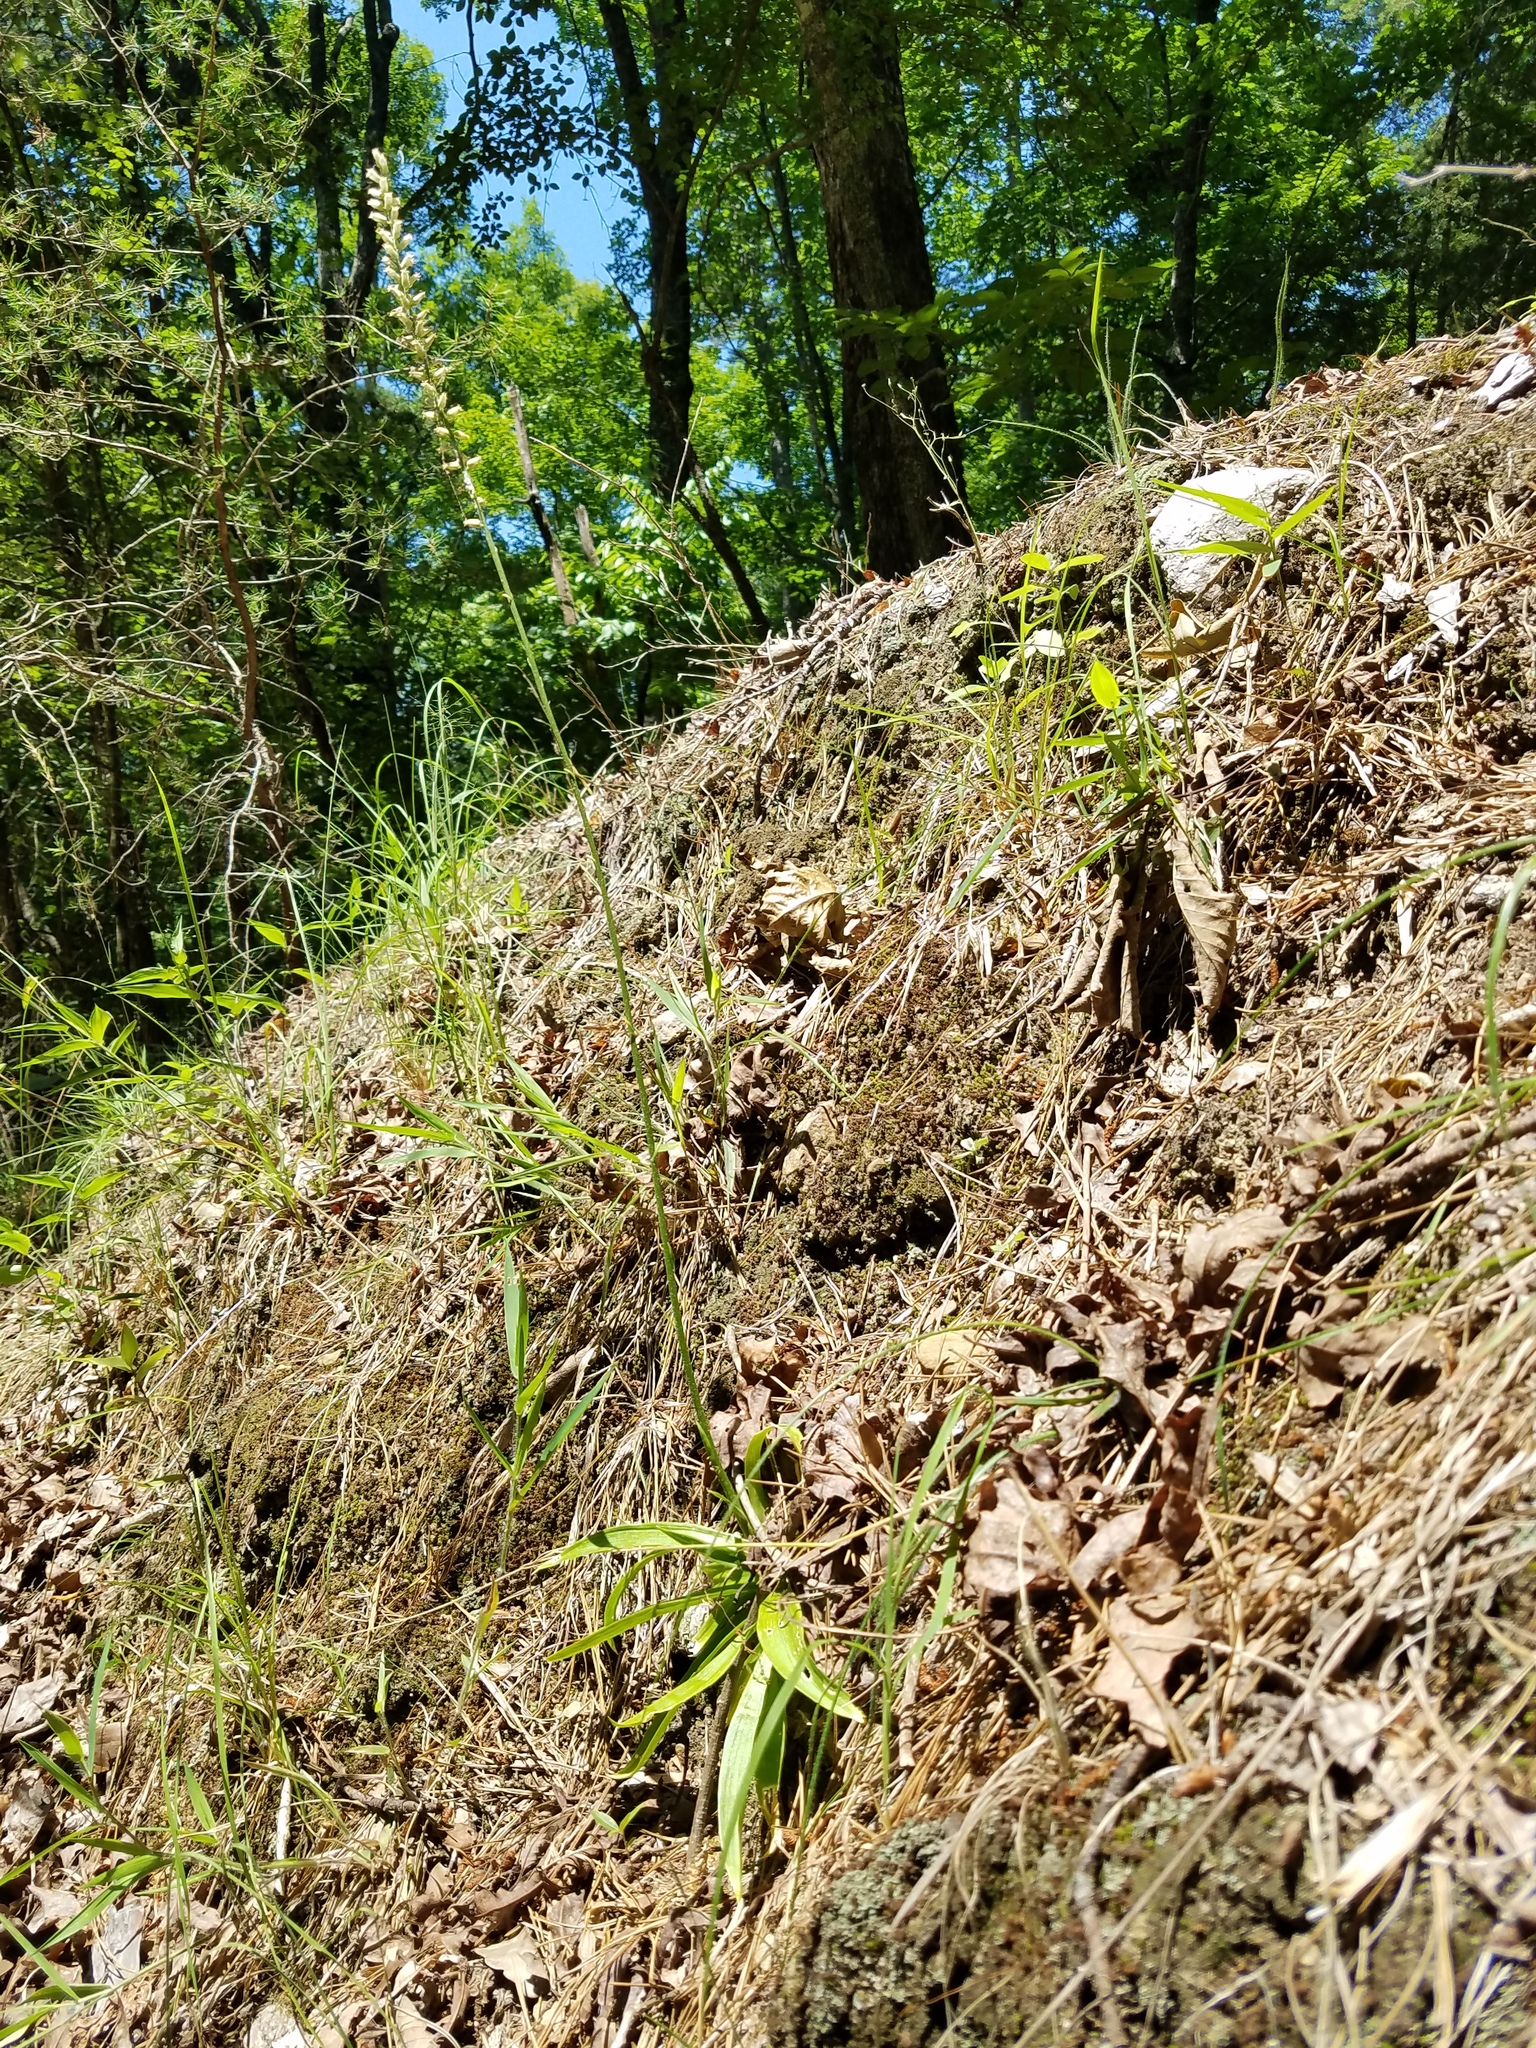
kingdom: Plantae
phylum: Tracheophyta
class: Liliopsida
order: Dioscoreales
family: Nartheciaceae
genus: Aletris
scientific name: Aletris farinosa
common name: Colicroot
